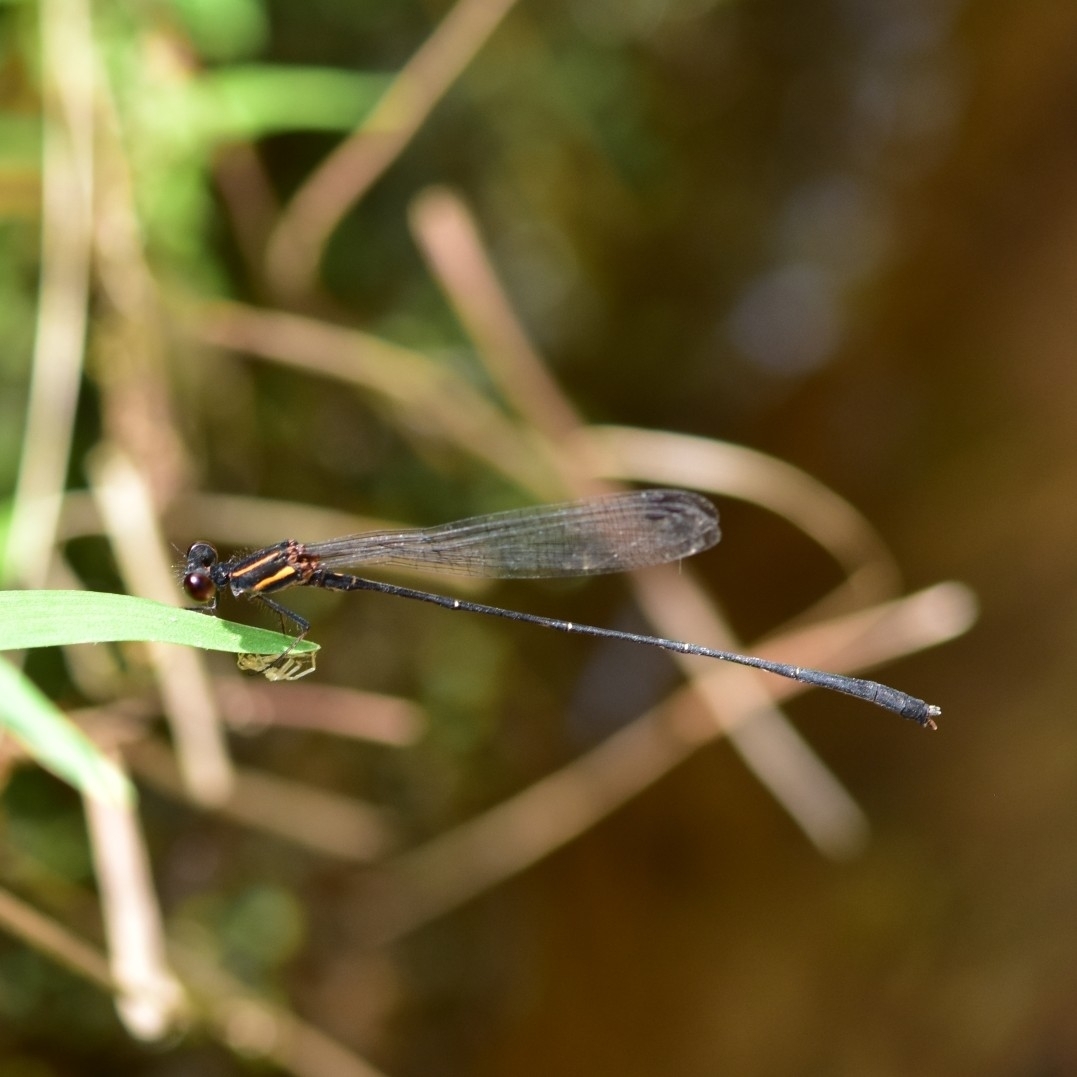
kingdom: Animalia
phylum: Arthropoda
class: Insecta
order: Odonata
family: Platycnemididae
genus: Prodasineura
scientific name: Prodasineura verticalis
